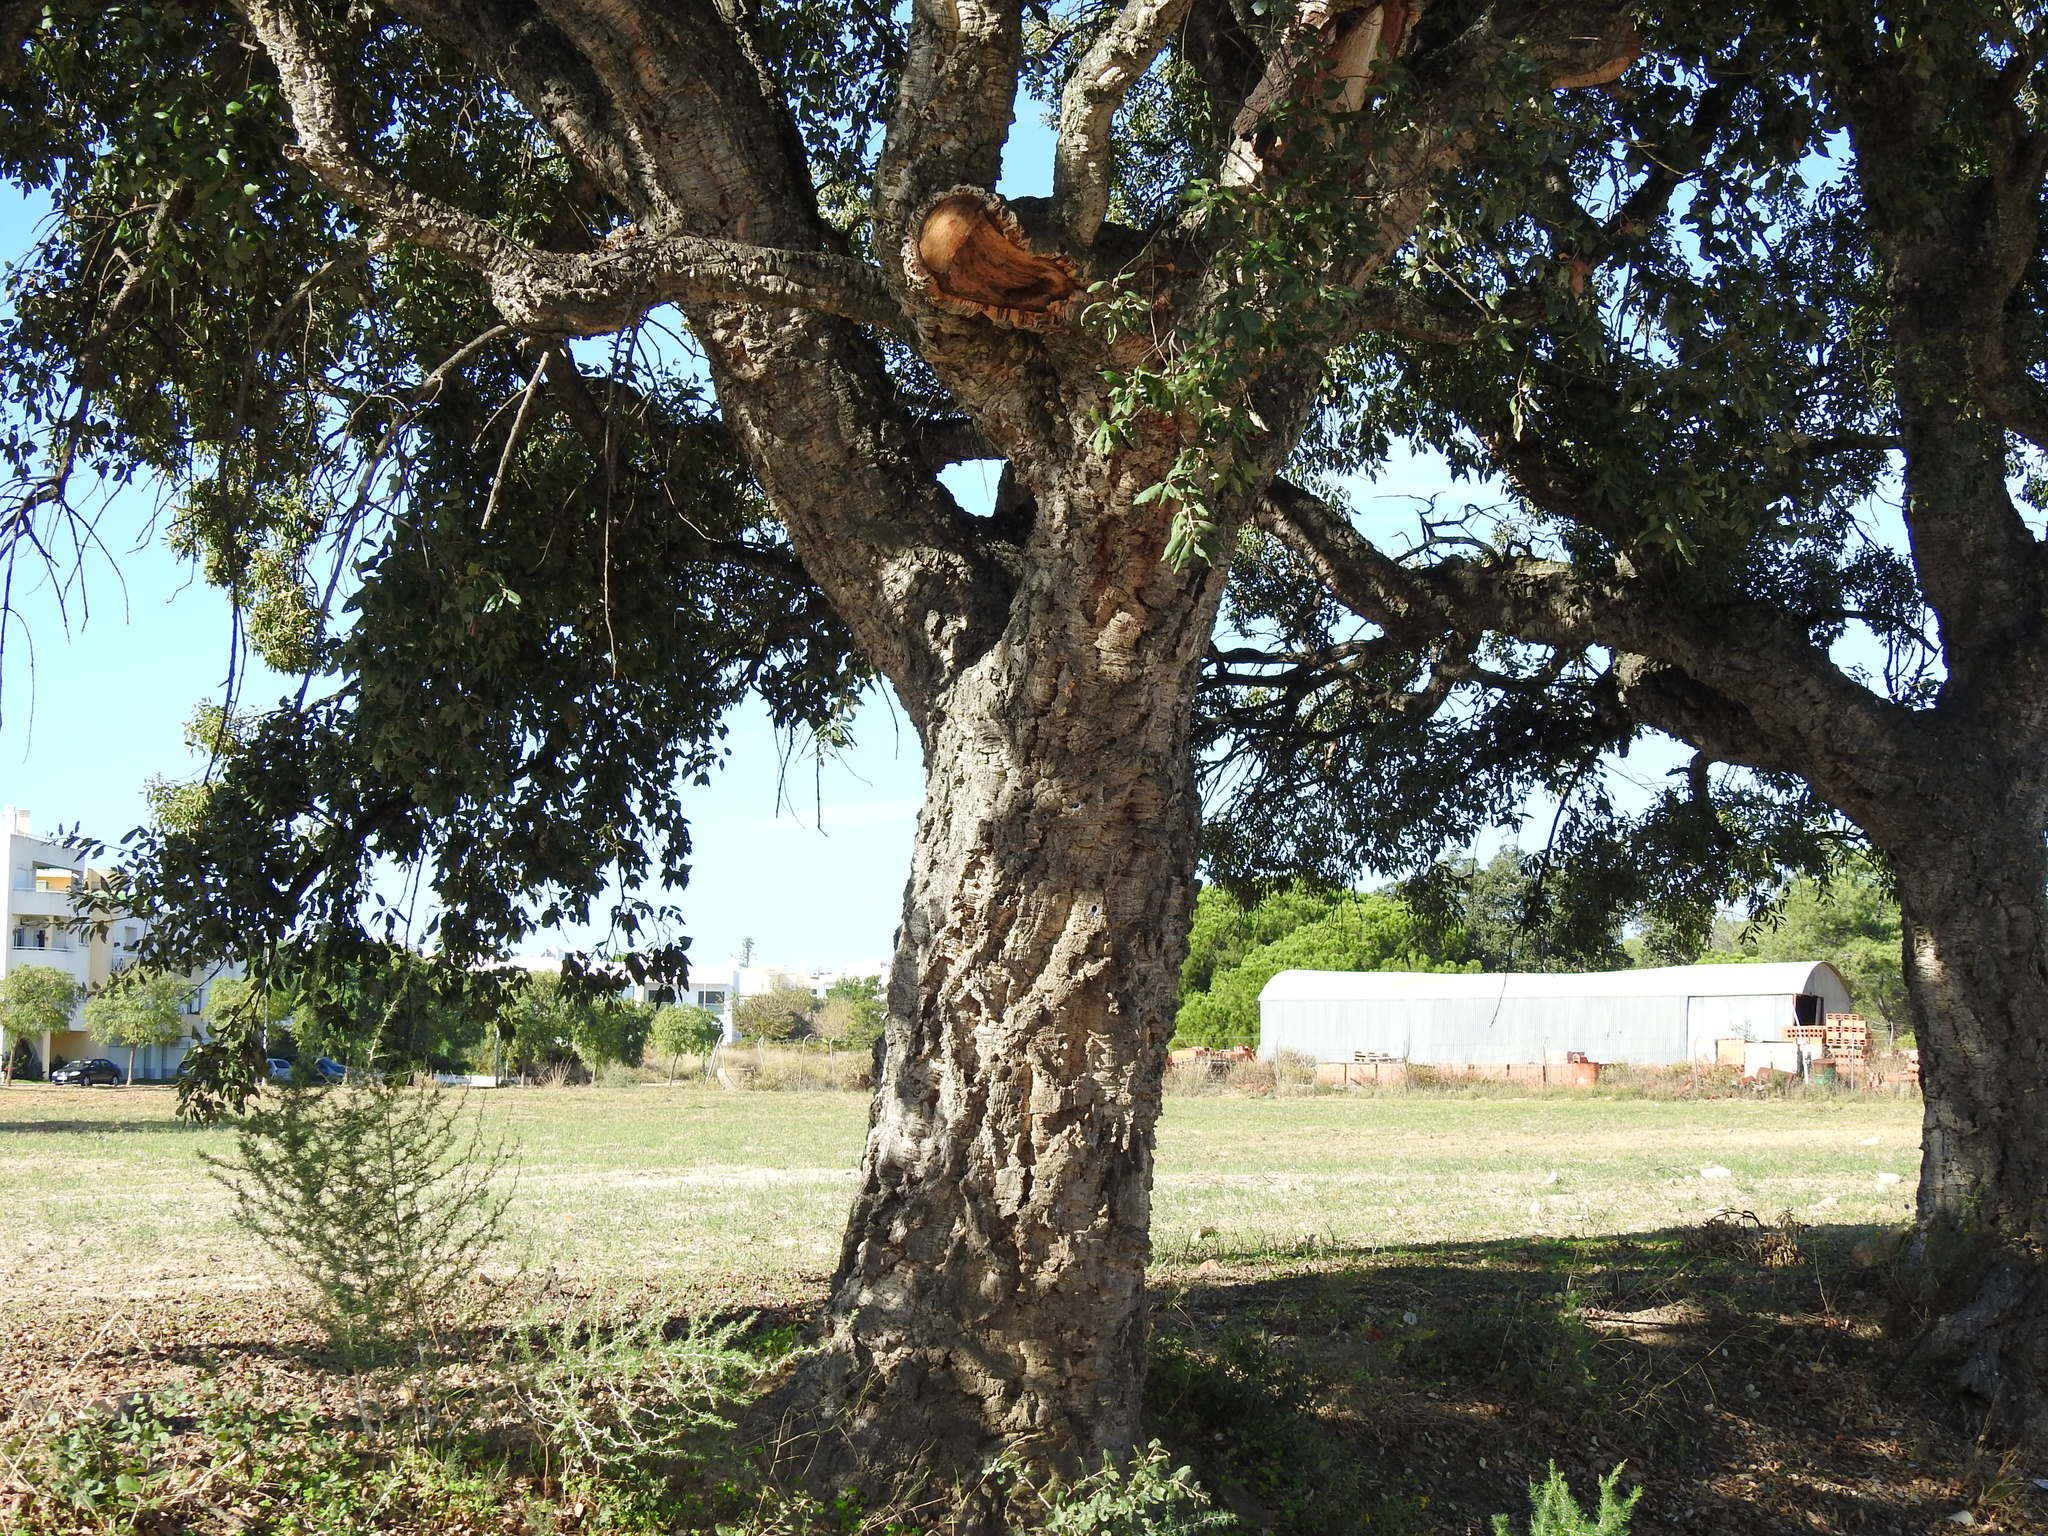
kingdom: Plantae
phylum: Tracheophyta
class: Magnoliopsida
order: Fagales
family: Fagaceae
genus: Quercus
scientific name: Quercus suber
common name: Cork oak
